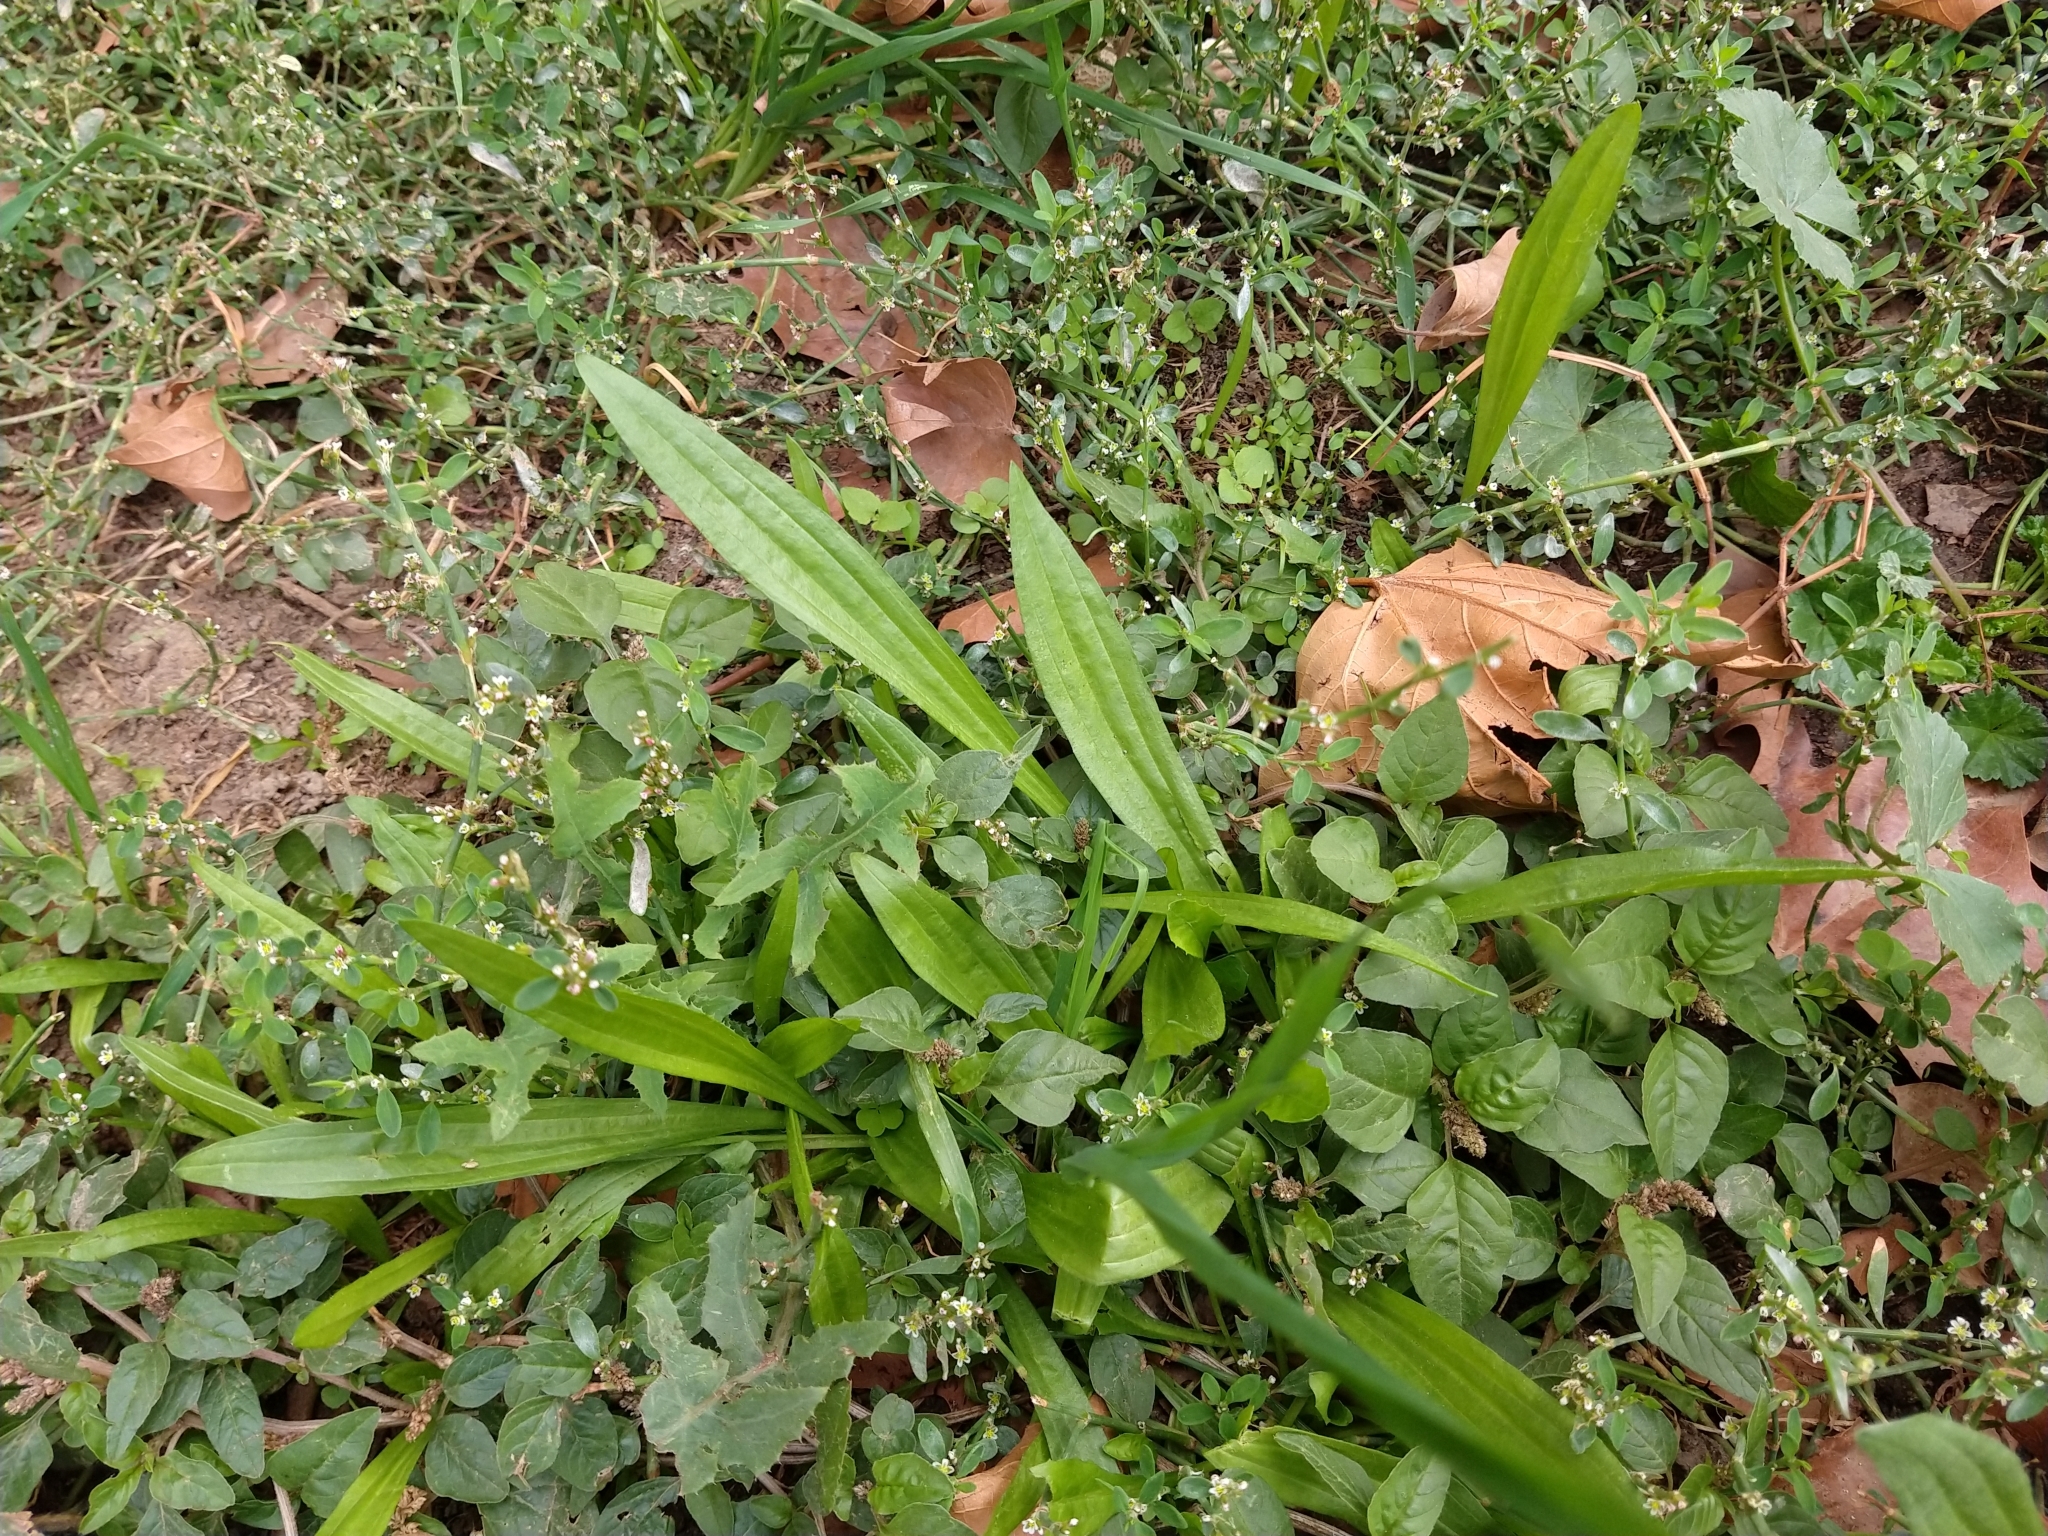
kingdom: Plantae
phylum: Tracheophyta
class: Magnoliopsida
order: Lamiales
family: Plantaginaceae
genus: Plantago
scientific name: Plantago lanceolata
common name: Ribwort plantain
